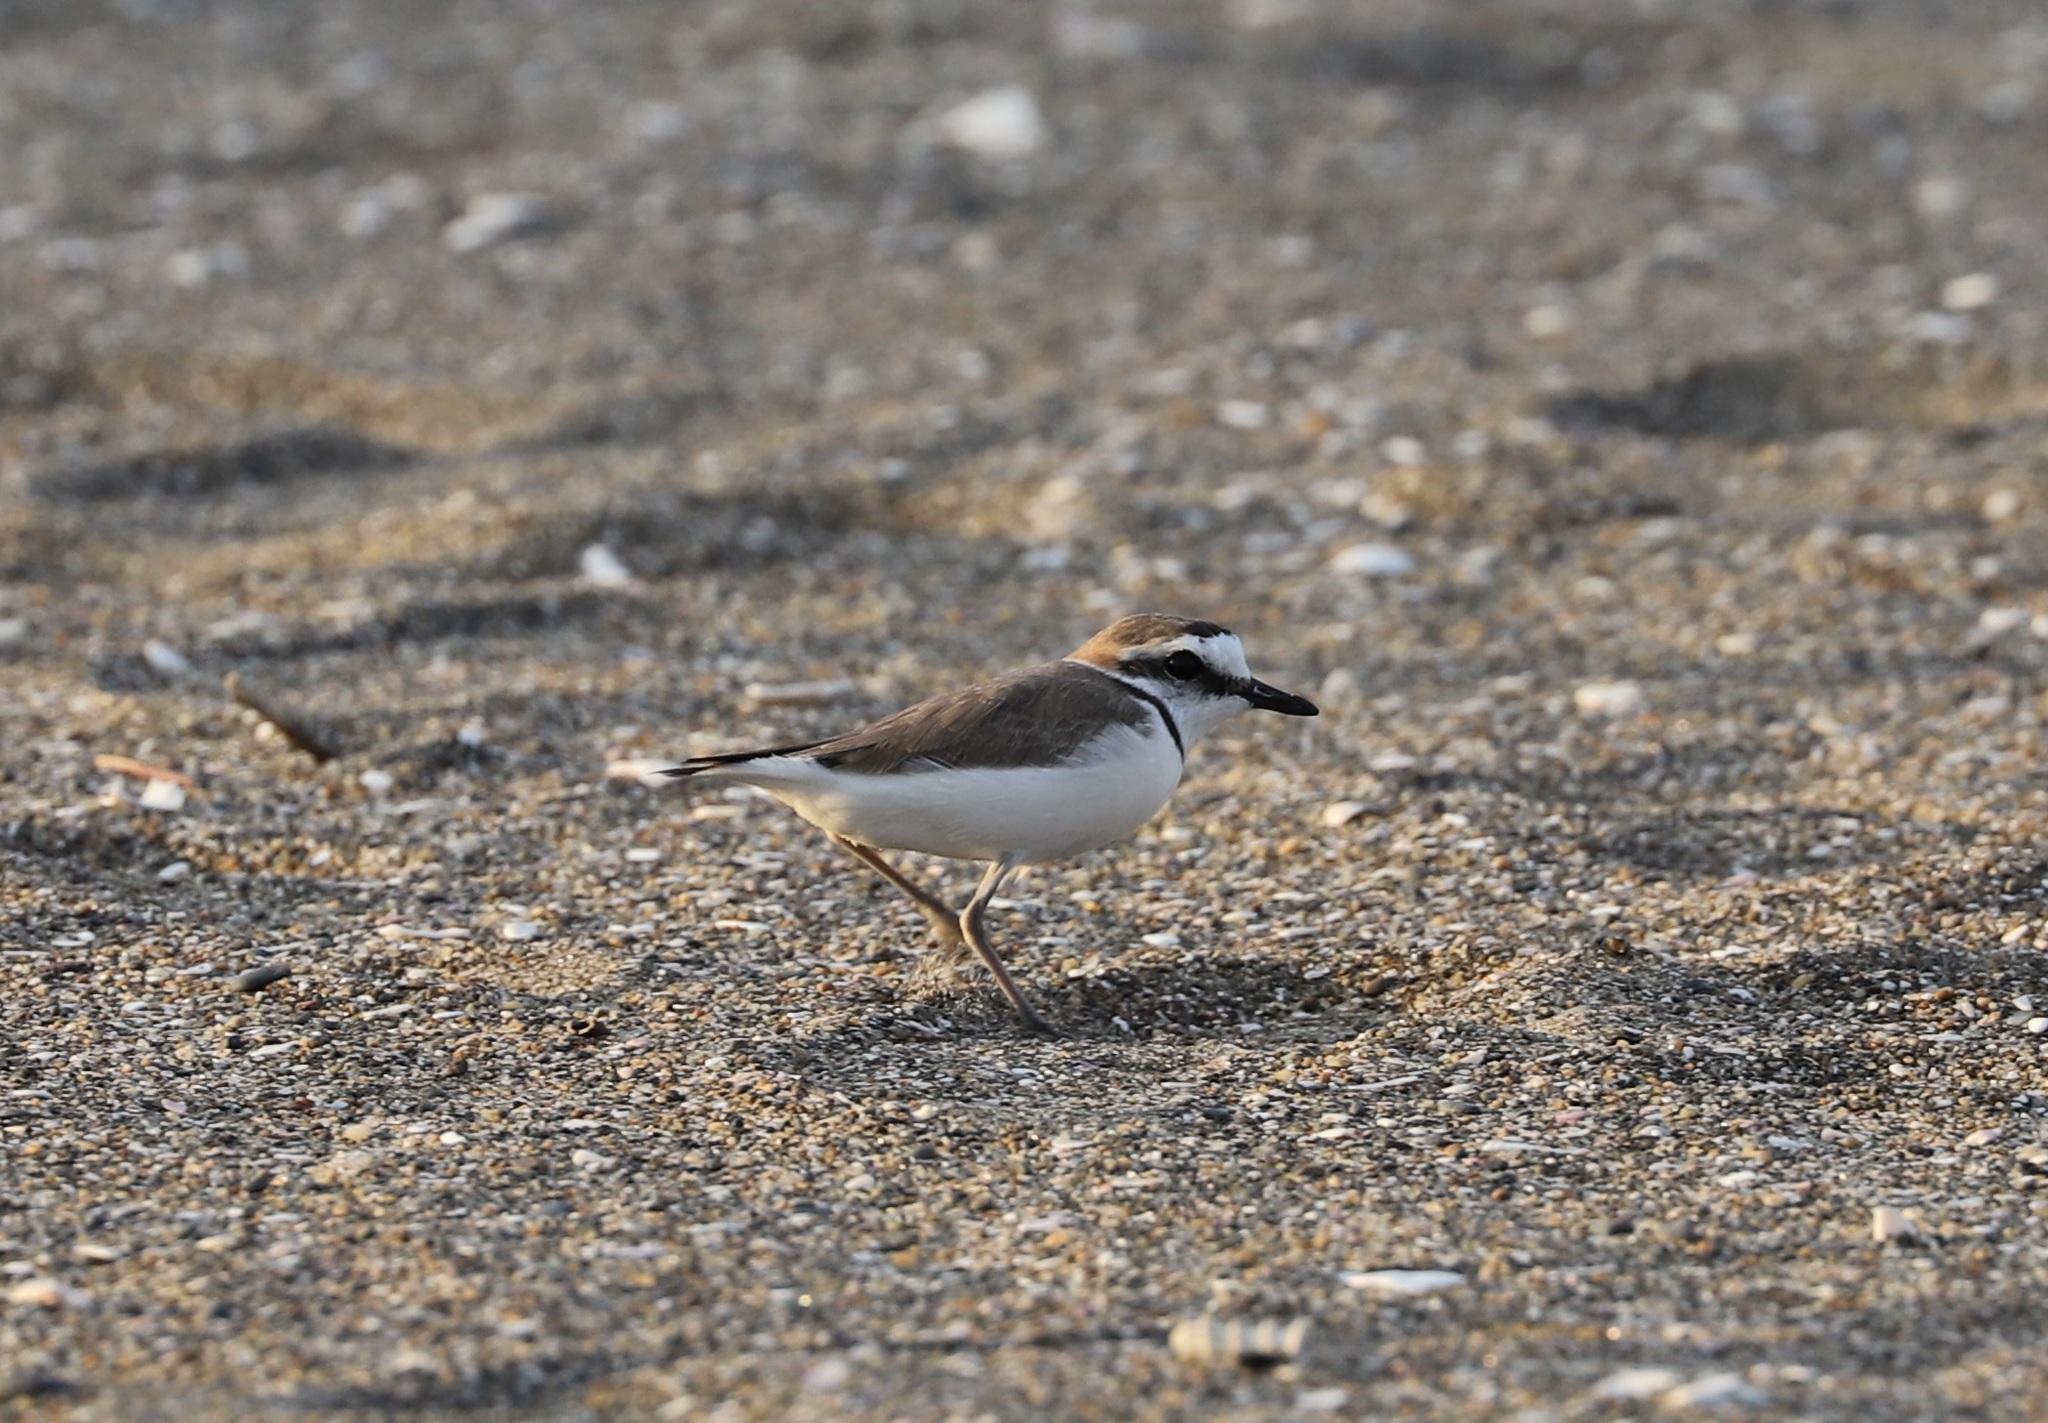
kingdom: Animalia
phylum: Chordata
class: Aves
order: Charadriiformes
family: Charadriidae
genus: Charadrius
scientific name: Charadrius alexandrinus
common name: Kentish plover
